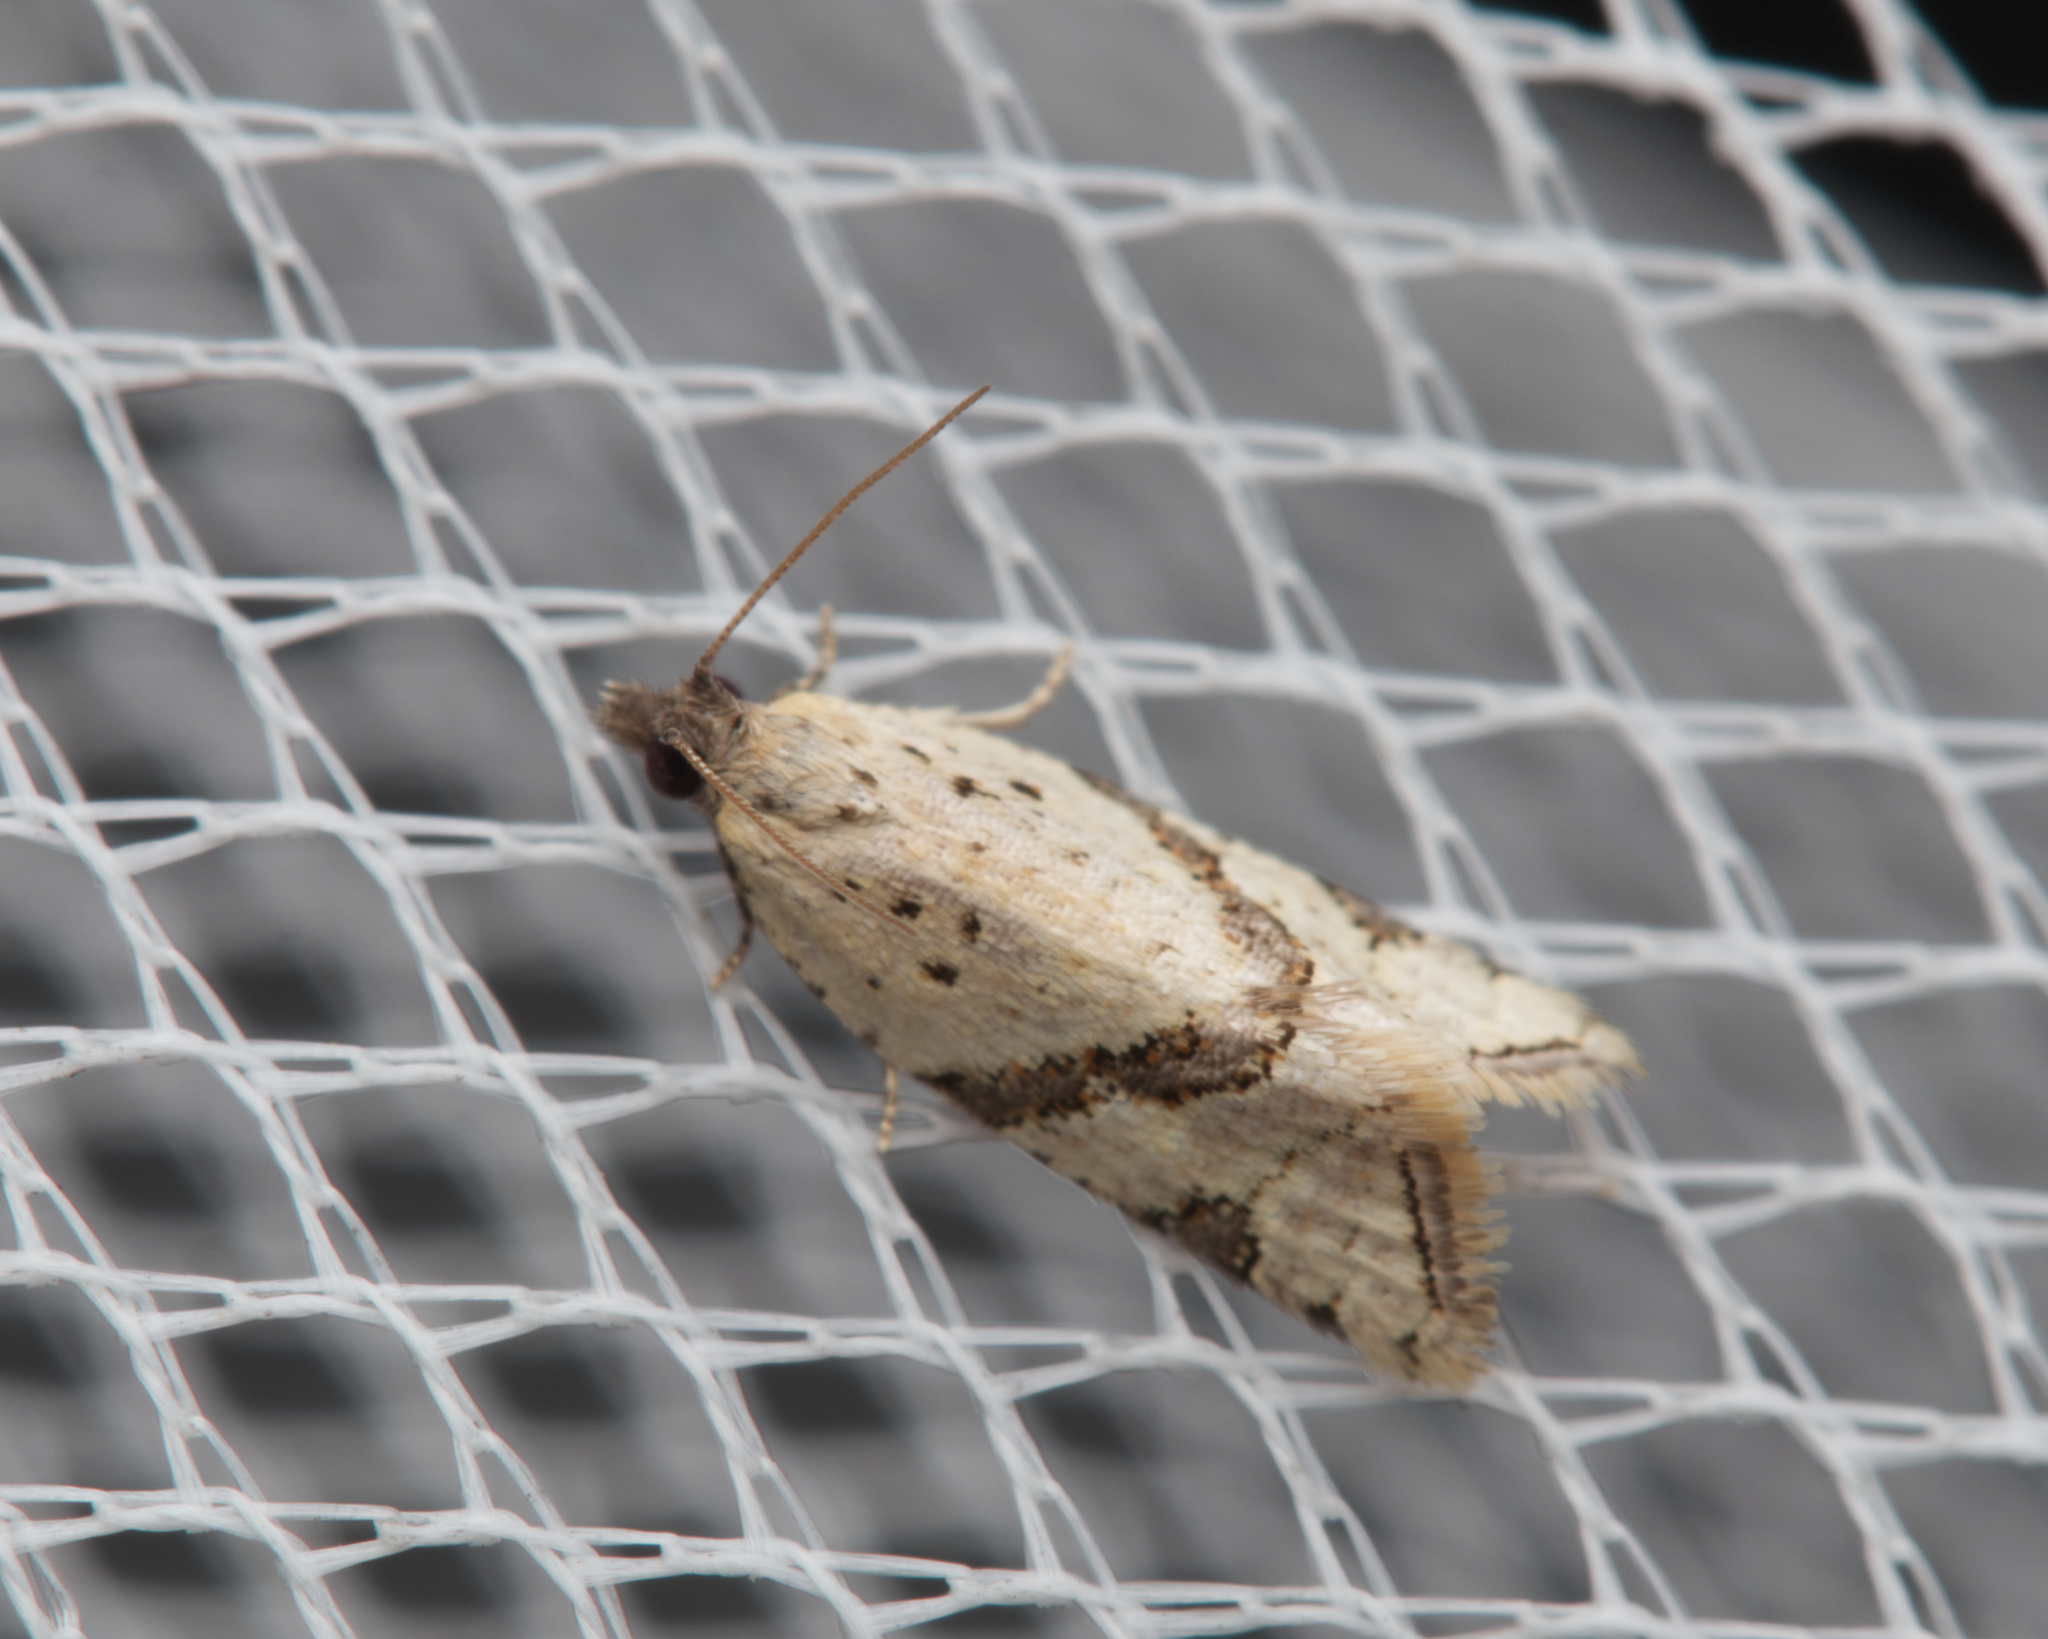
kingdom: Animalia
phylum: Arthropoda
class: Insecta
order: Lepidoptera
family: Tortricidae
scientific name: Tortricidae
